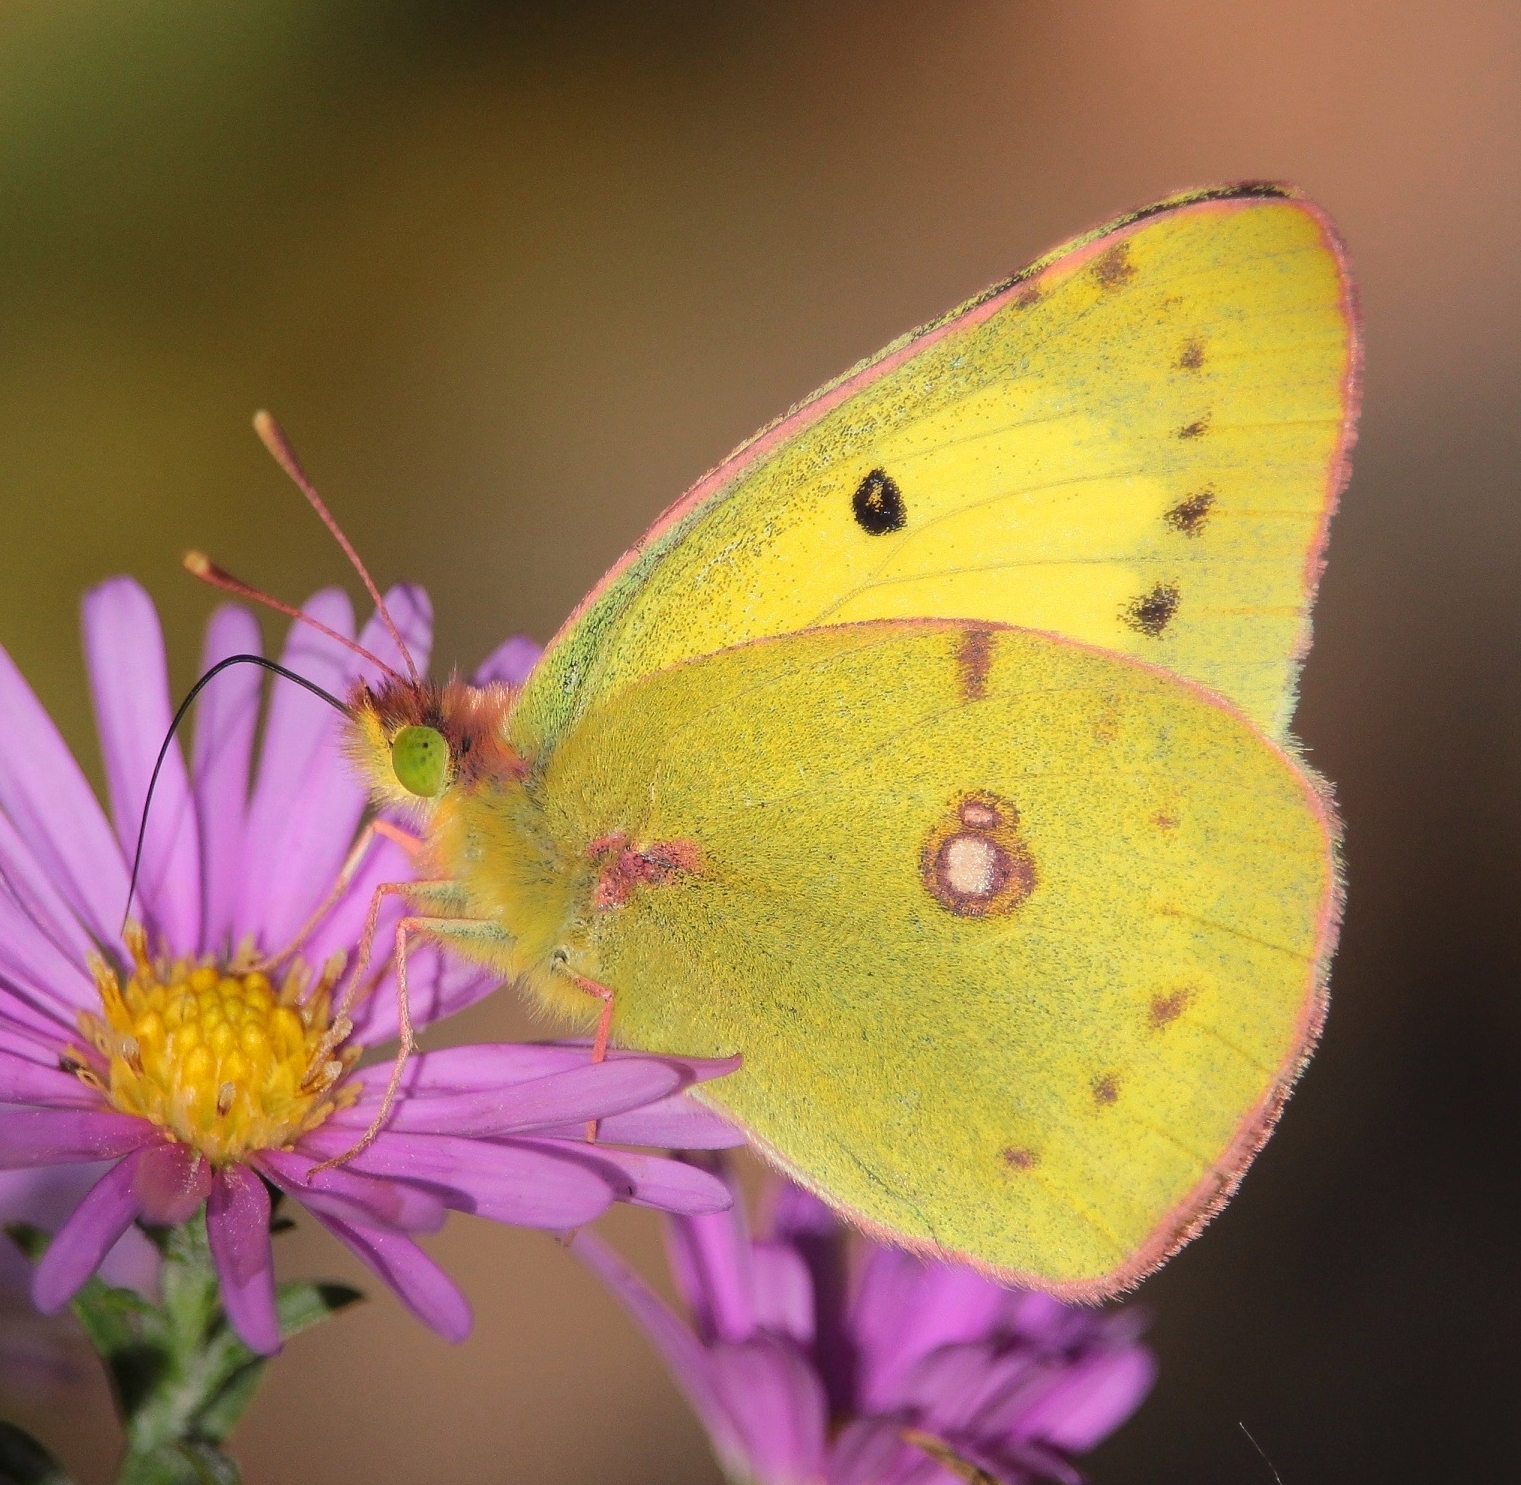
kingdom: Animalia
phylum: Arthropoda
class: Insecta
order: Lepidoptera
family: Pieridae
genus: Colias
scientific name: Colias erate
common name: Eastern pale clouded yellow
